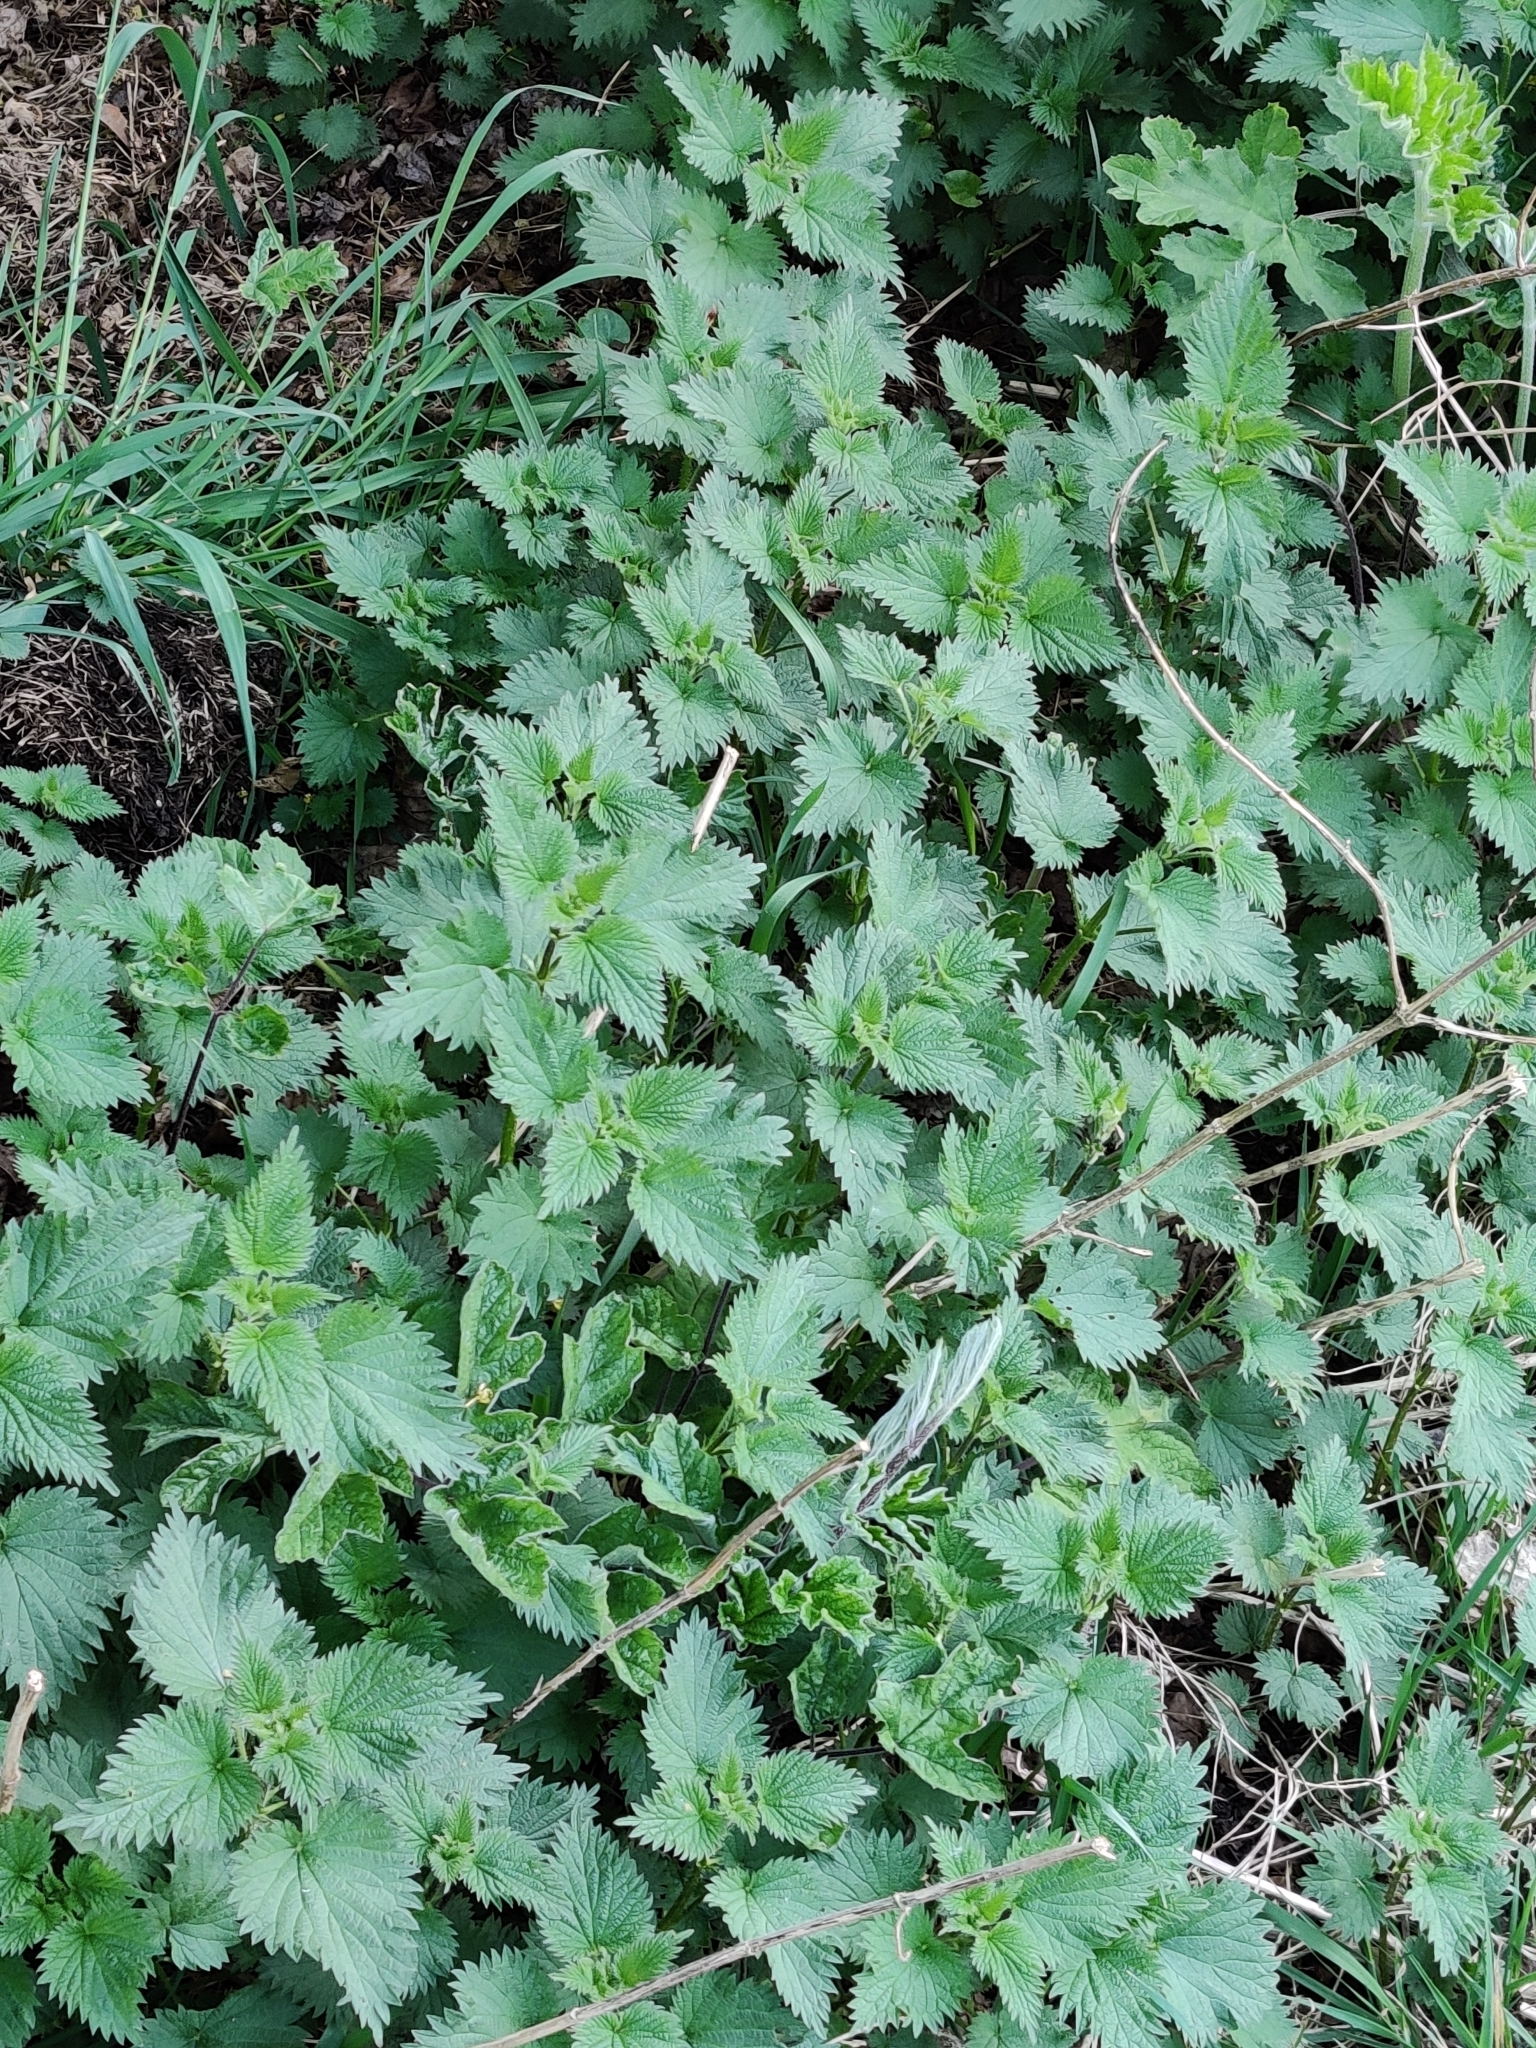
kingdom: Plantae
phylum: Tracheophyta
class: Magnoliopsida
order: Rosales
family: Urticaceae
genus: Urtica
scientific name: Urtica dioica
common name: Common nettle
